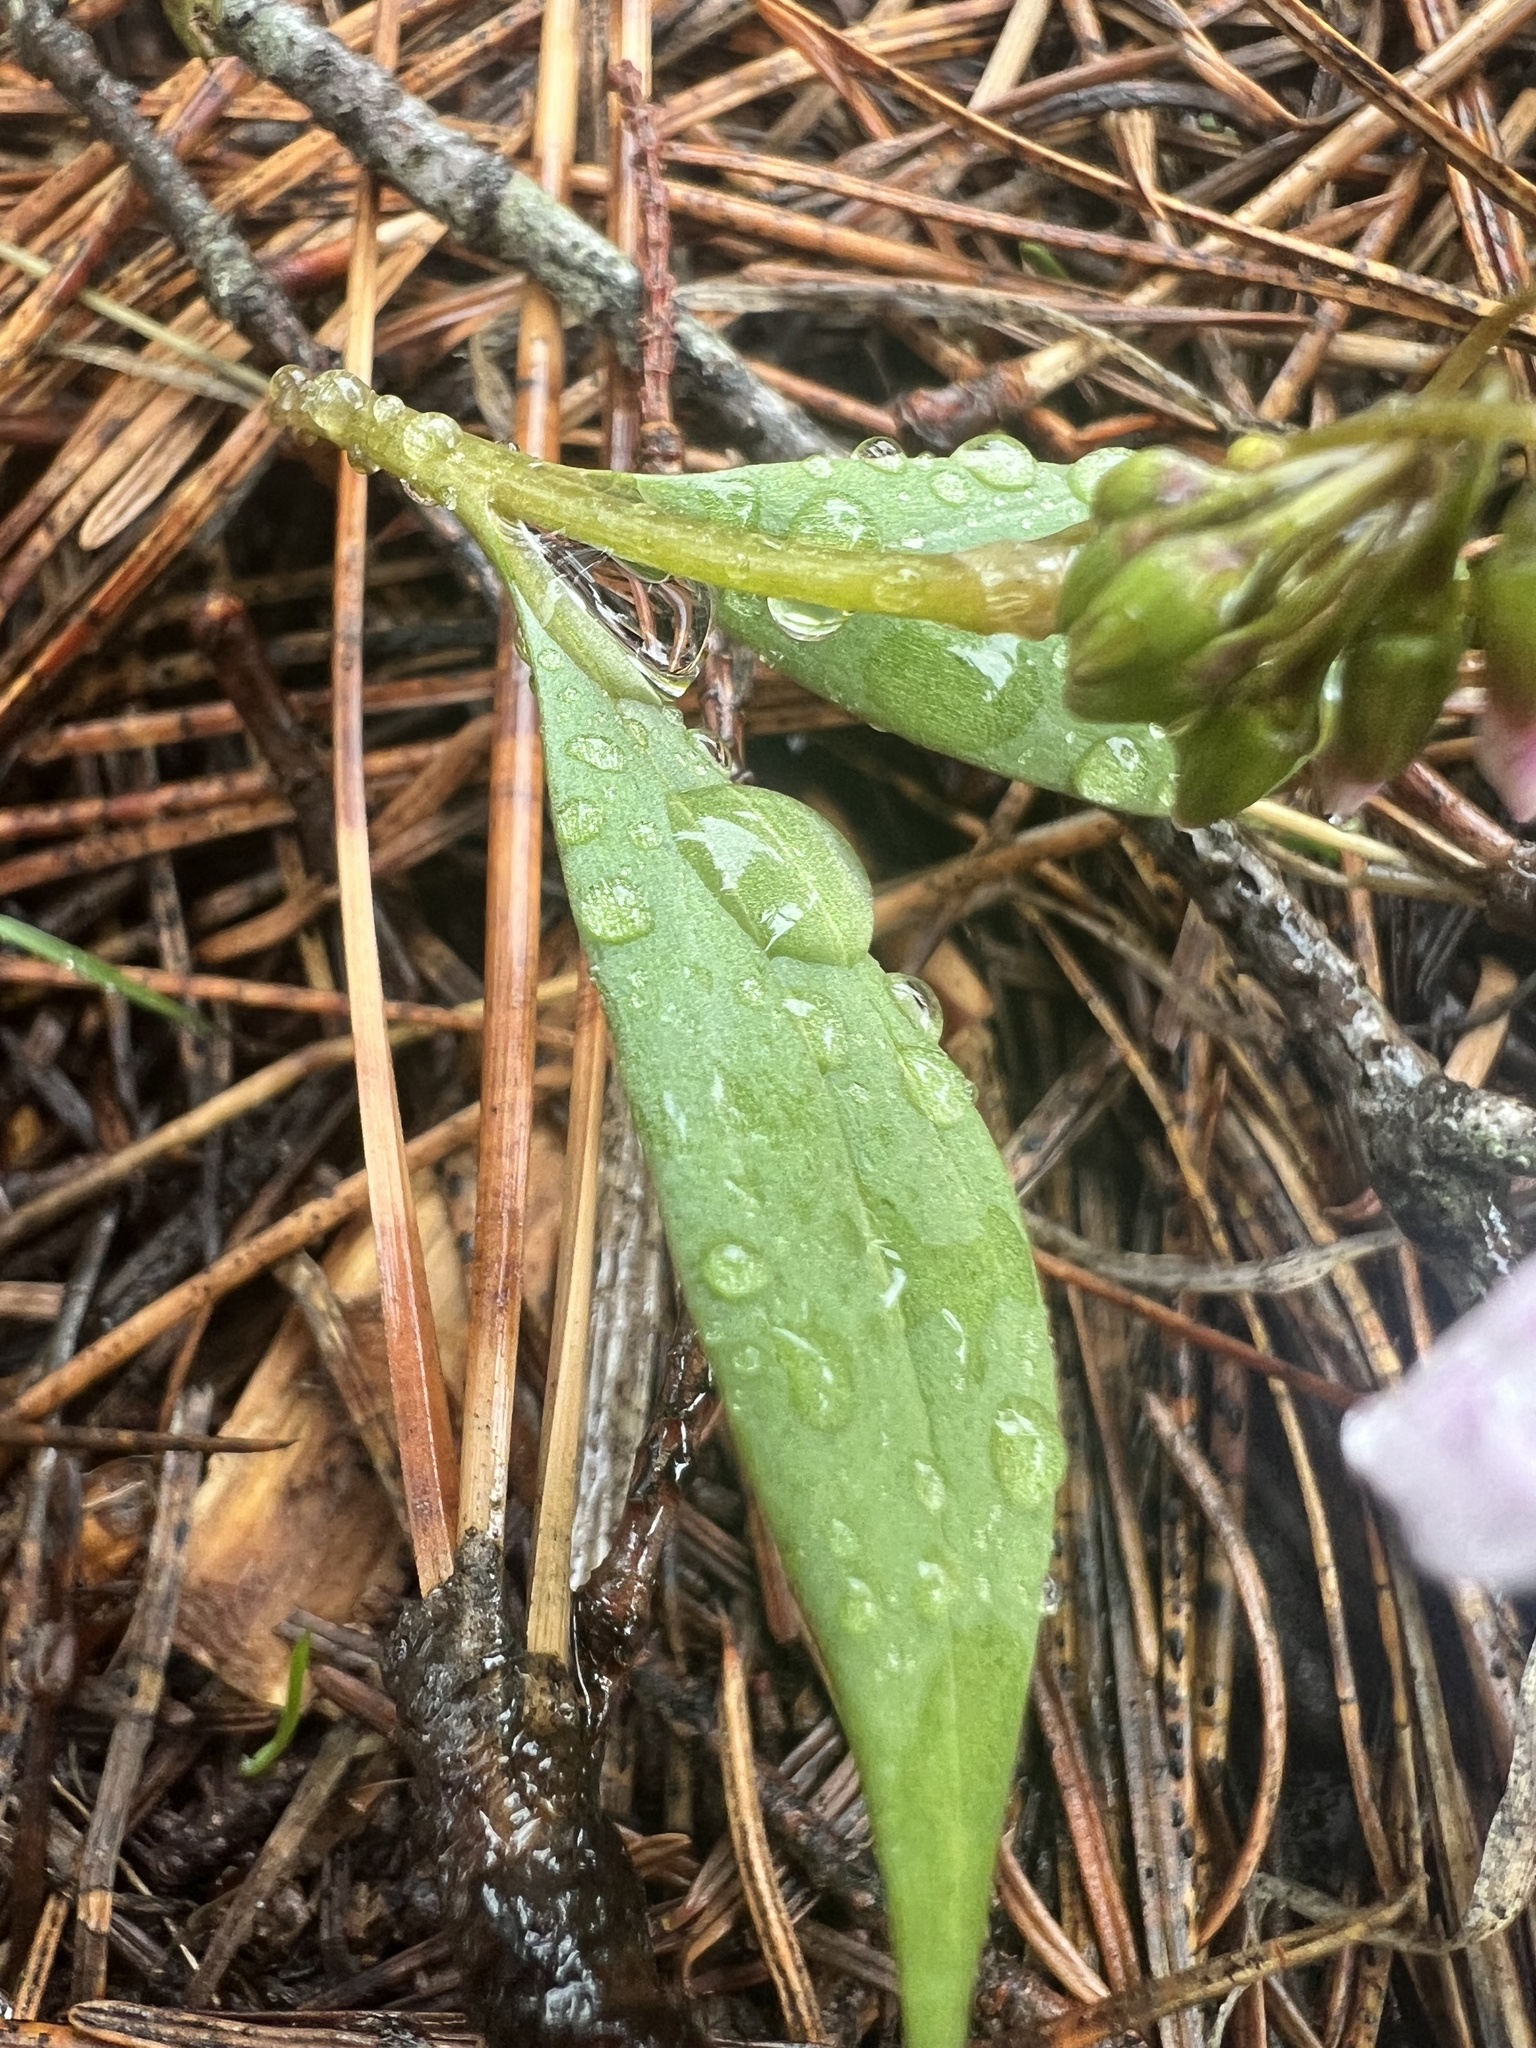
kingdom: Plantae
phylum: Tracheophyta
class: Magnoliopsida
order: Caryophyllales
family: Montiaceae
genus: Claytonia
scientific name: Claytonia lanceolata
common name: Western spring-beauty
